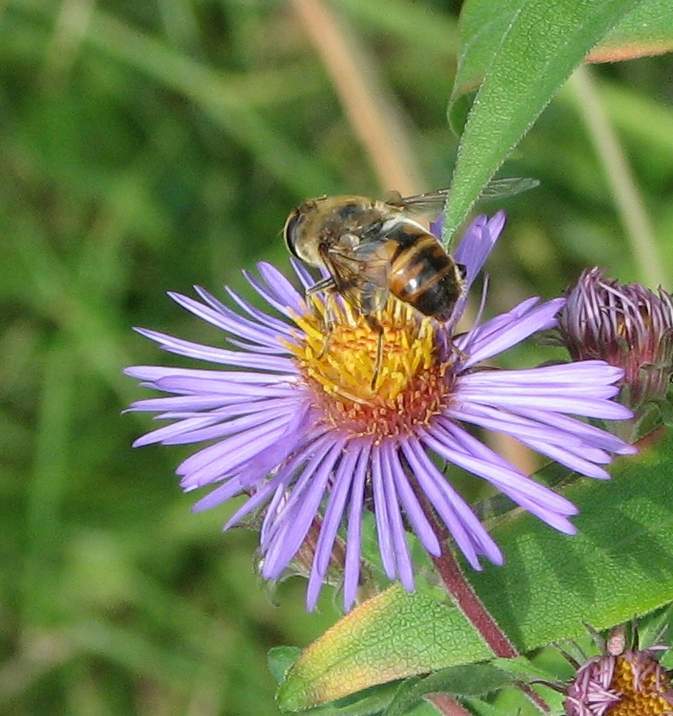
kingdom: Animalia
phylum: Arthropoda
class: Insecta
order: Diptera
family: Syrphidae
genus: Eristalis
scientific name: Eristalis tenax
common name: Drone fly
